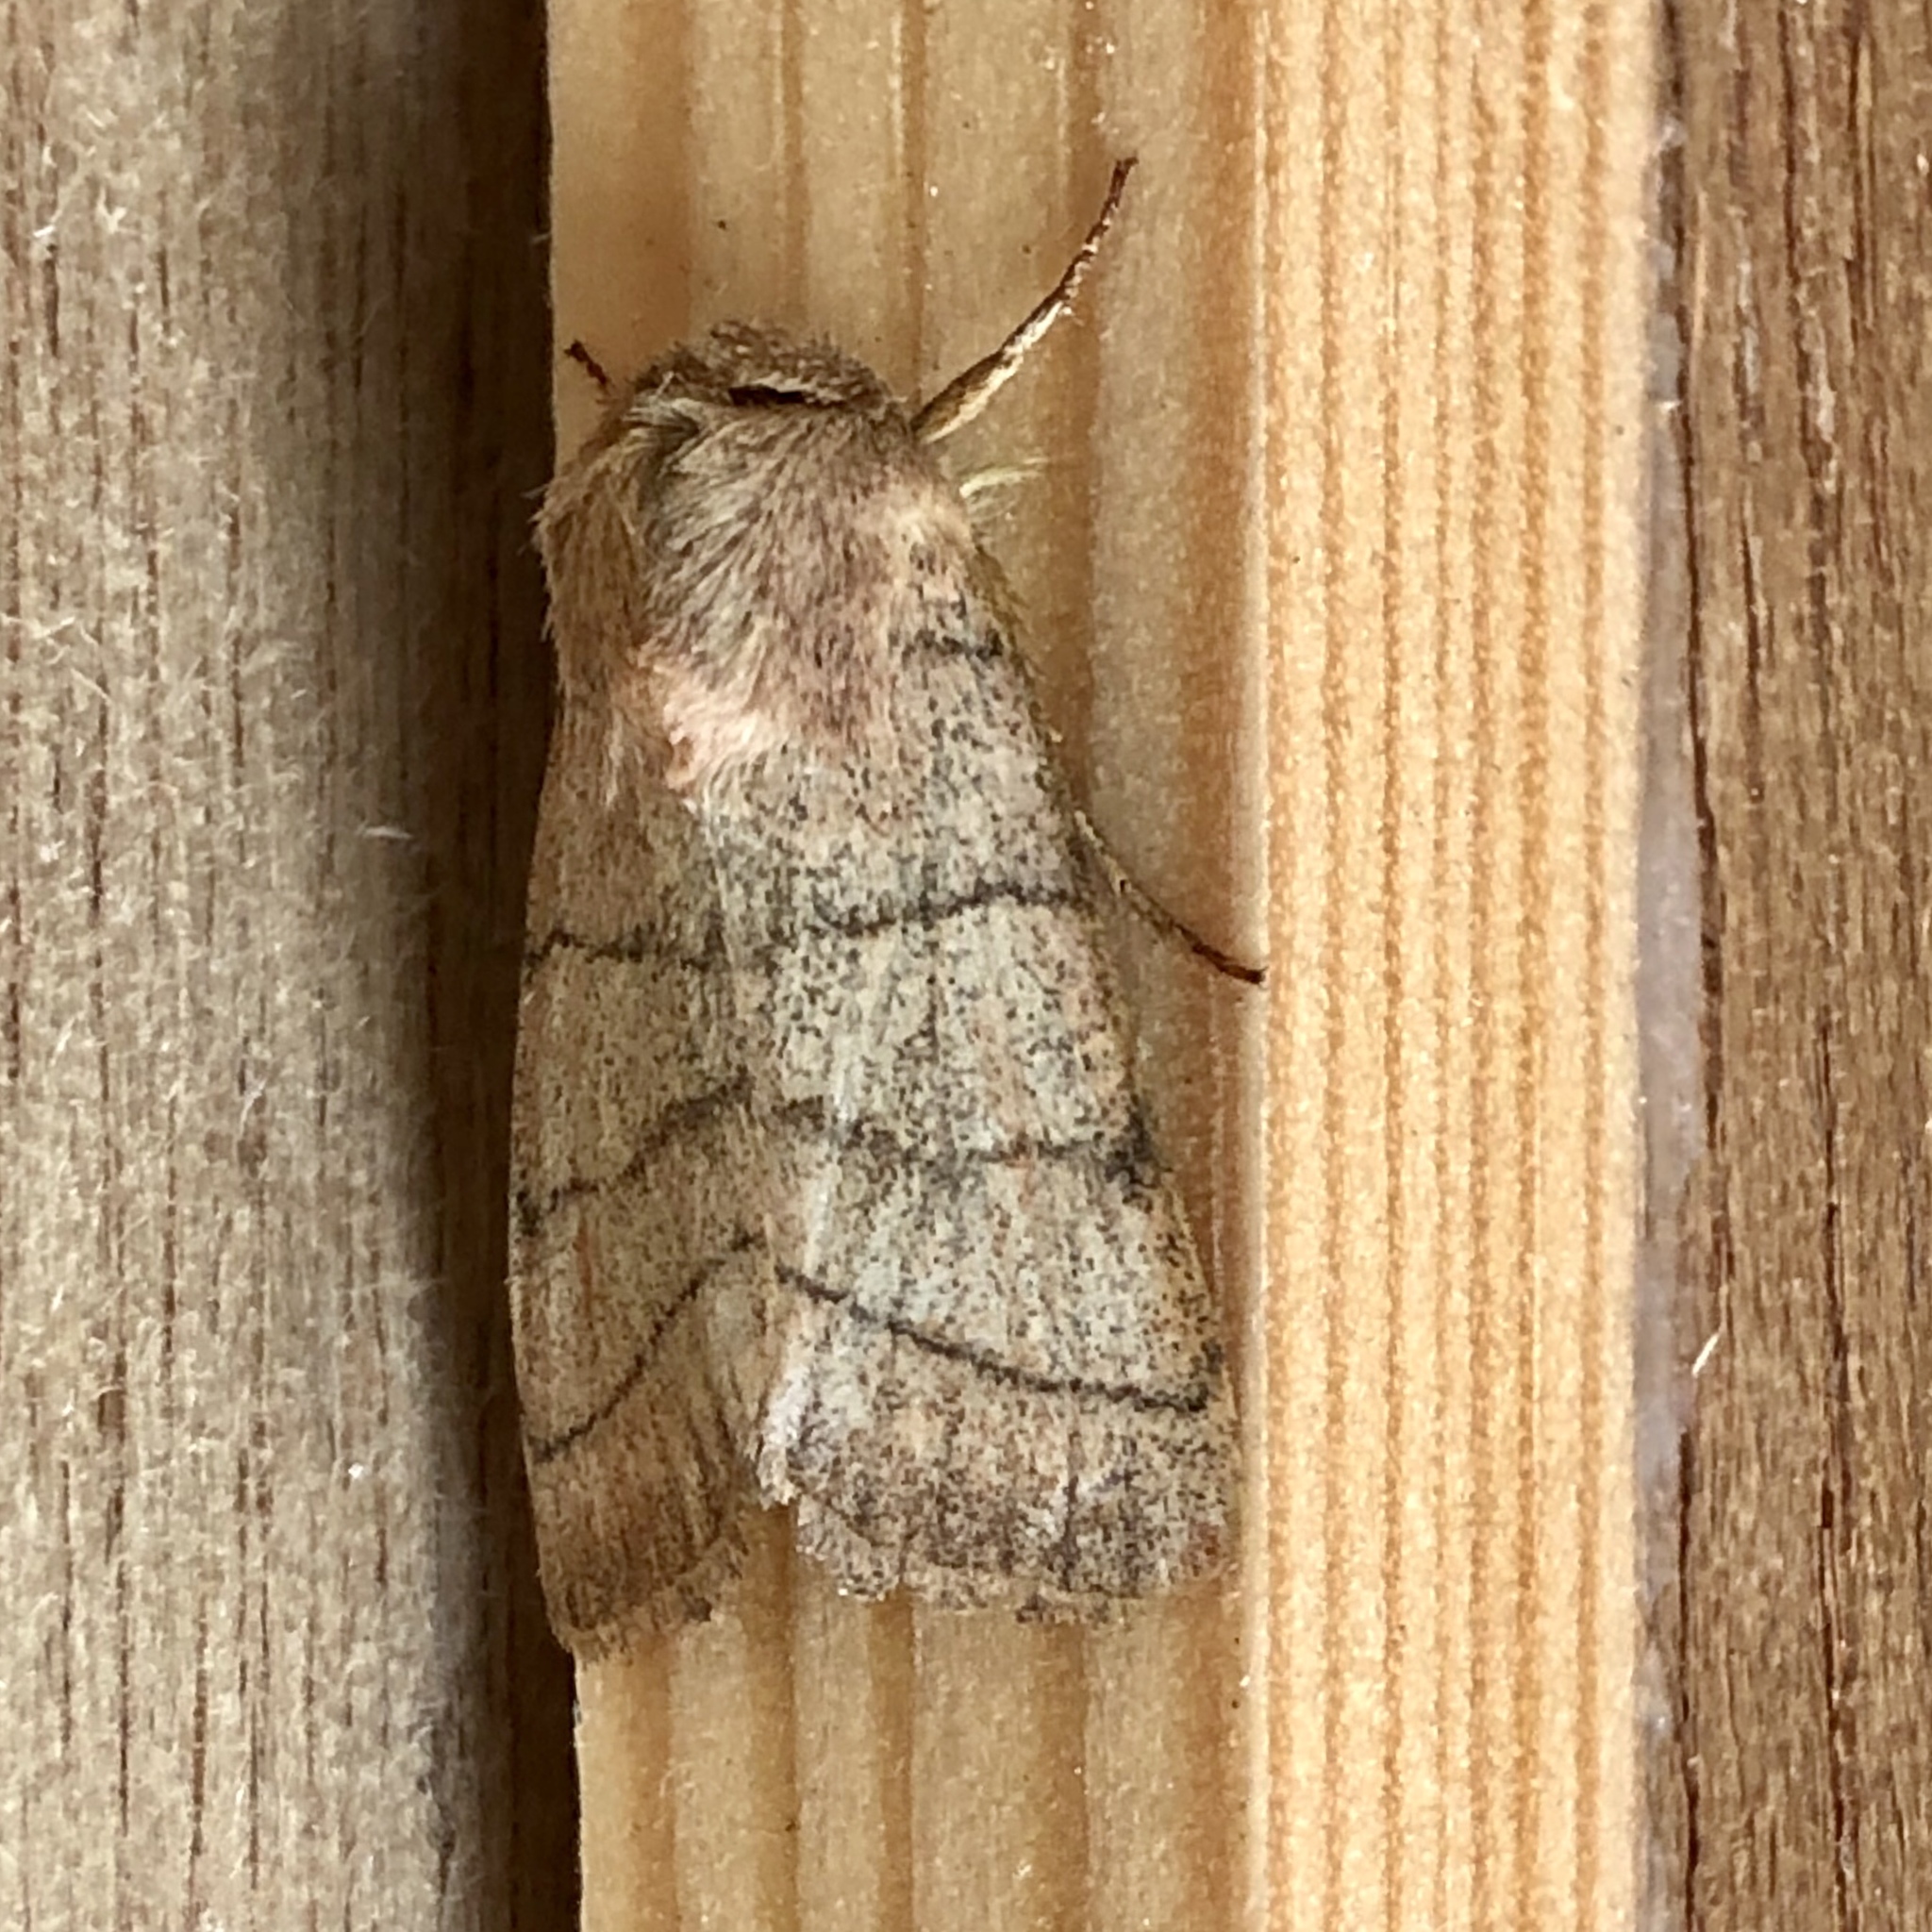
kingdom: Animalia
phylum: Arthropoda
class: Insecta
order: Lepidoptera
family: Noctuidae
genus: Charanyca
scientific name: Charanyca trigrammica
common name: Treble lines
